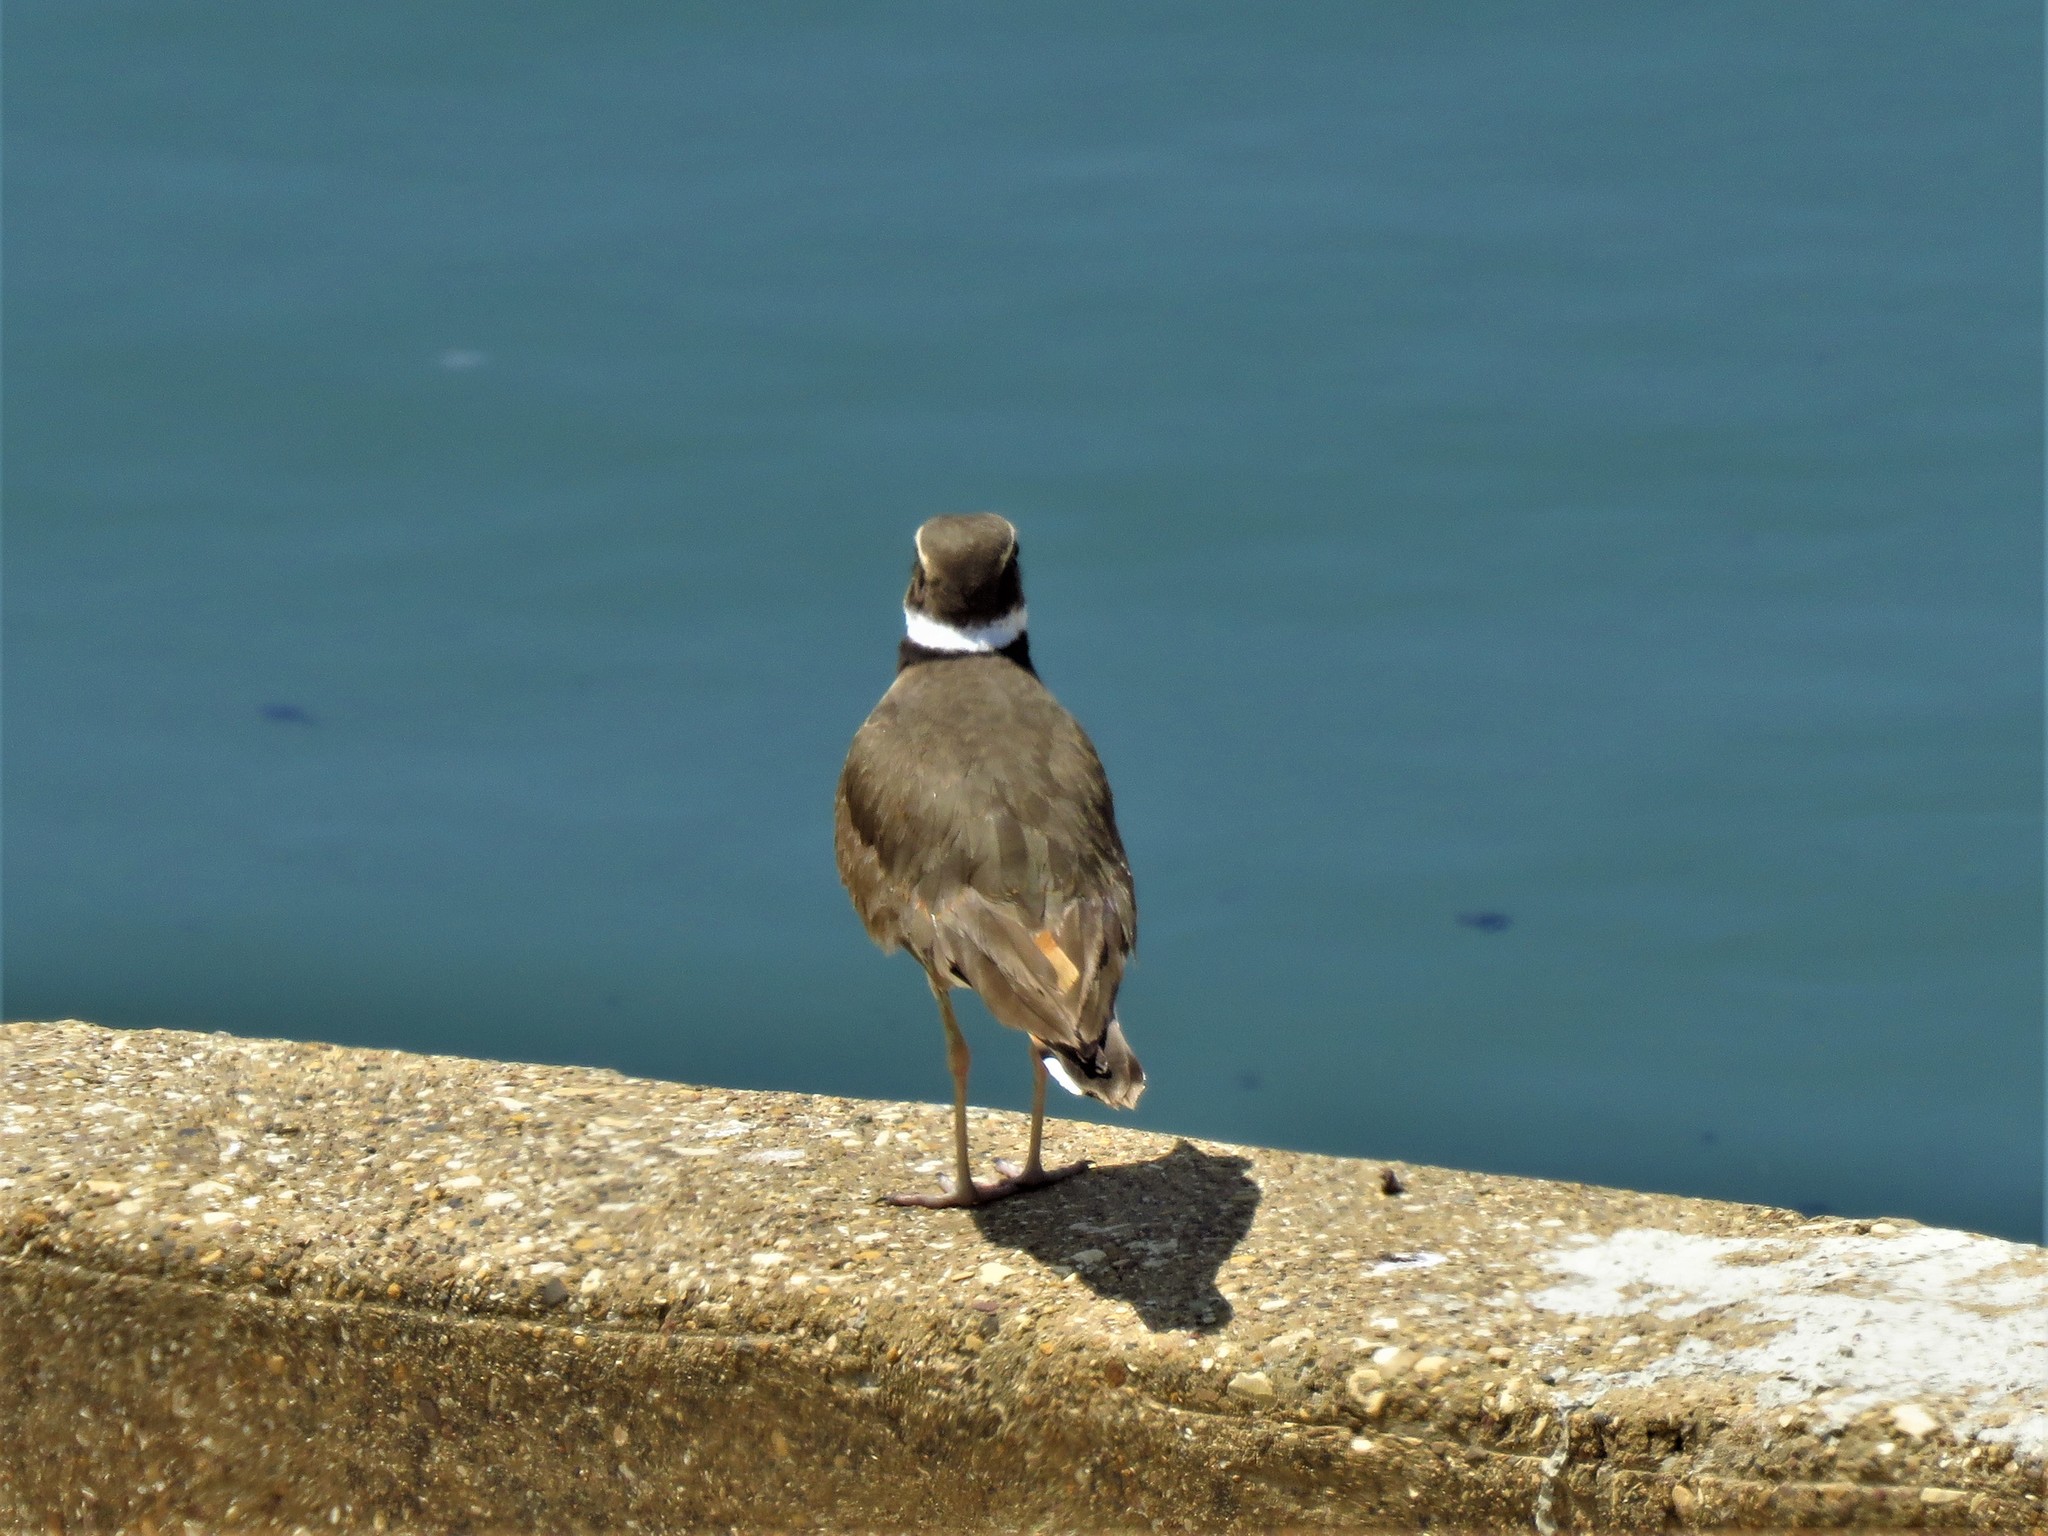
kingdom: Animalia
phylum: Chordata
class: Aves
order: Charadriiformes
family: Charadriidae
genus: Charadrius
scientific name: Charadrius vociferus
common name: Killdeer
